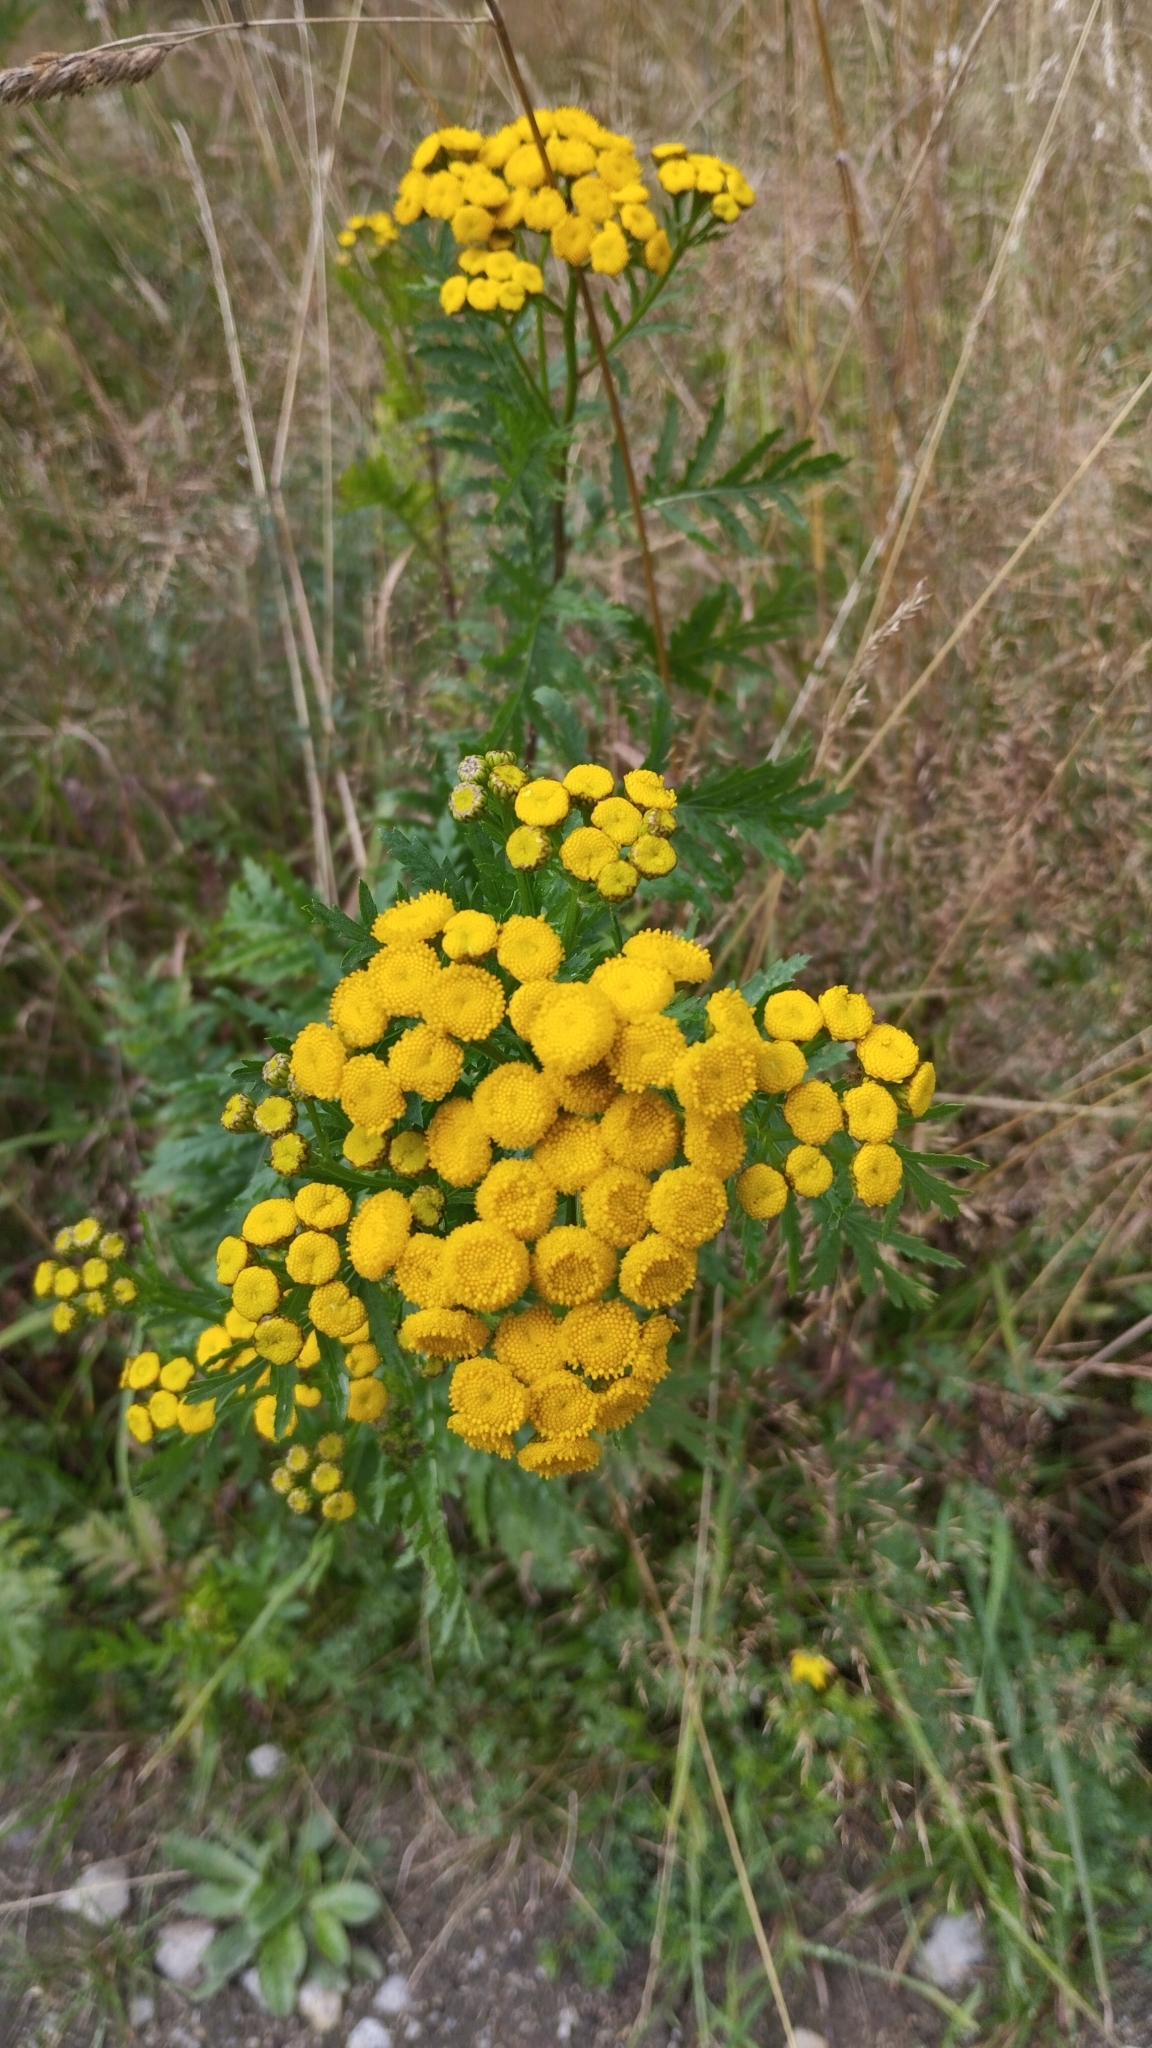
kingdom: Plantae
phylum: Tracheophyta
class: Magnoliopsida
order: Asterales
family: Asteraceae
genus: Tanacetum
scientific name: Tanacetum vulgare
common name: Common tansy
